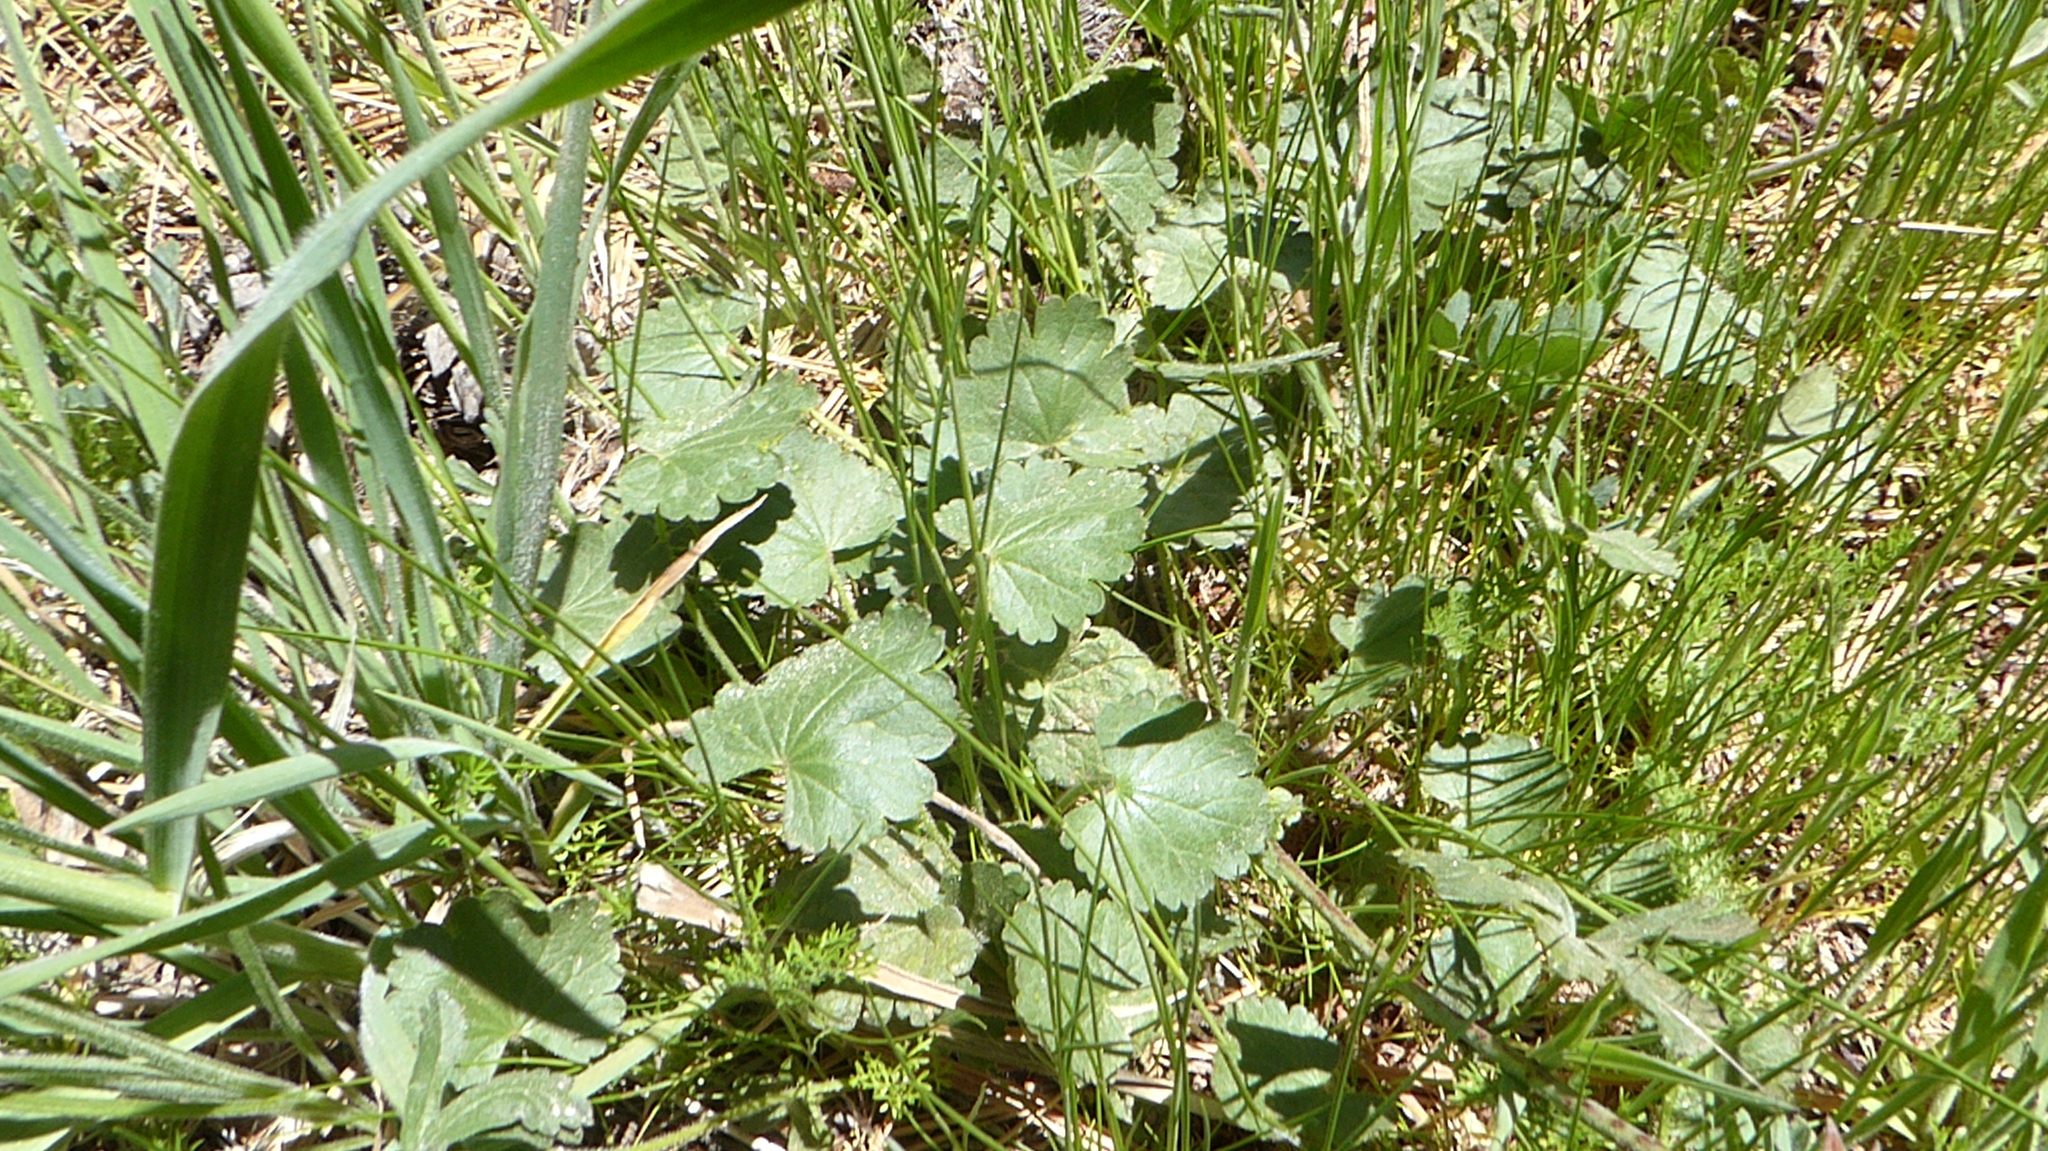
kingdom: Plantae
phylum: Tracheophyta
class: Magnoliopsida
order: Malvales
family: Malvaceae
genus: Sidalcea
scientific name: Sidalcea sparsifolia
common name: Southern checkerbloom
